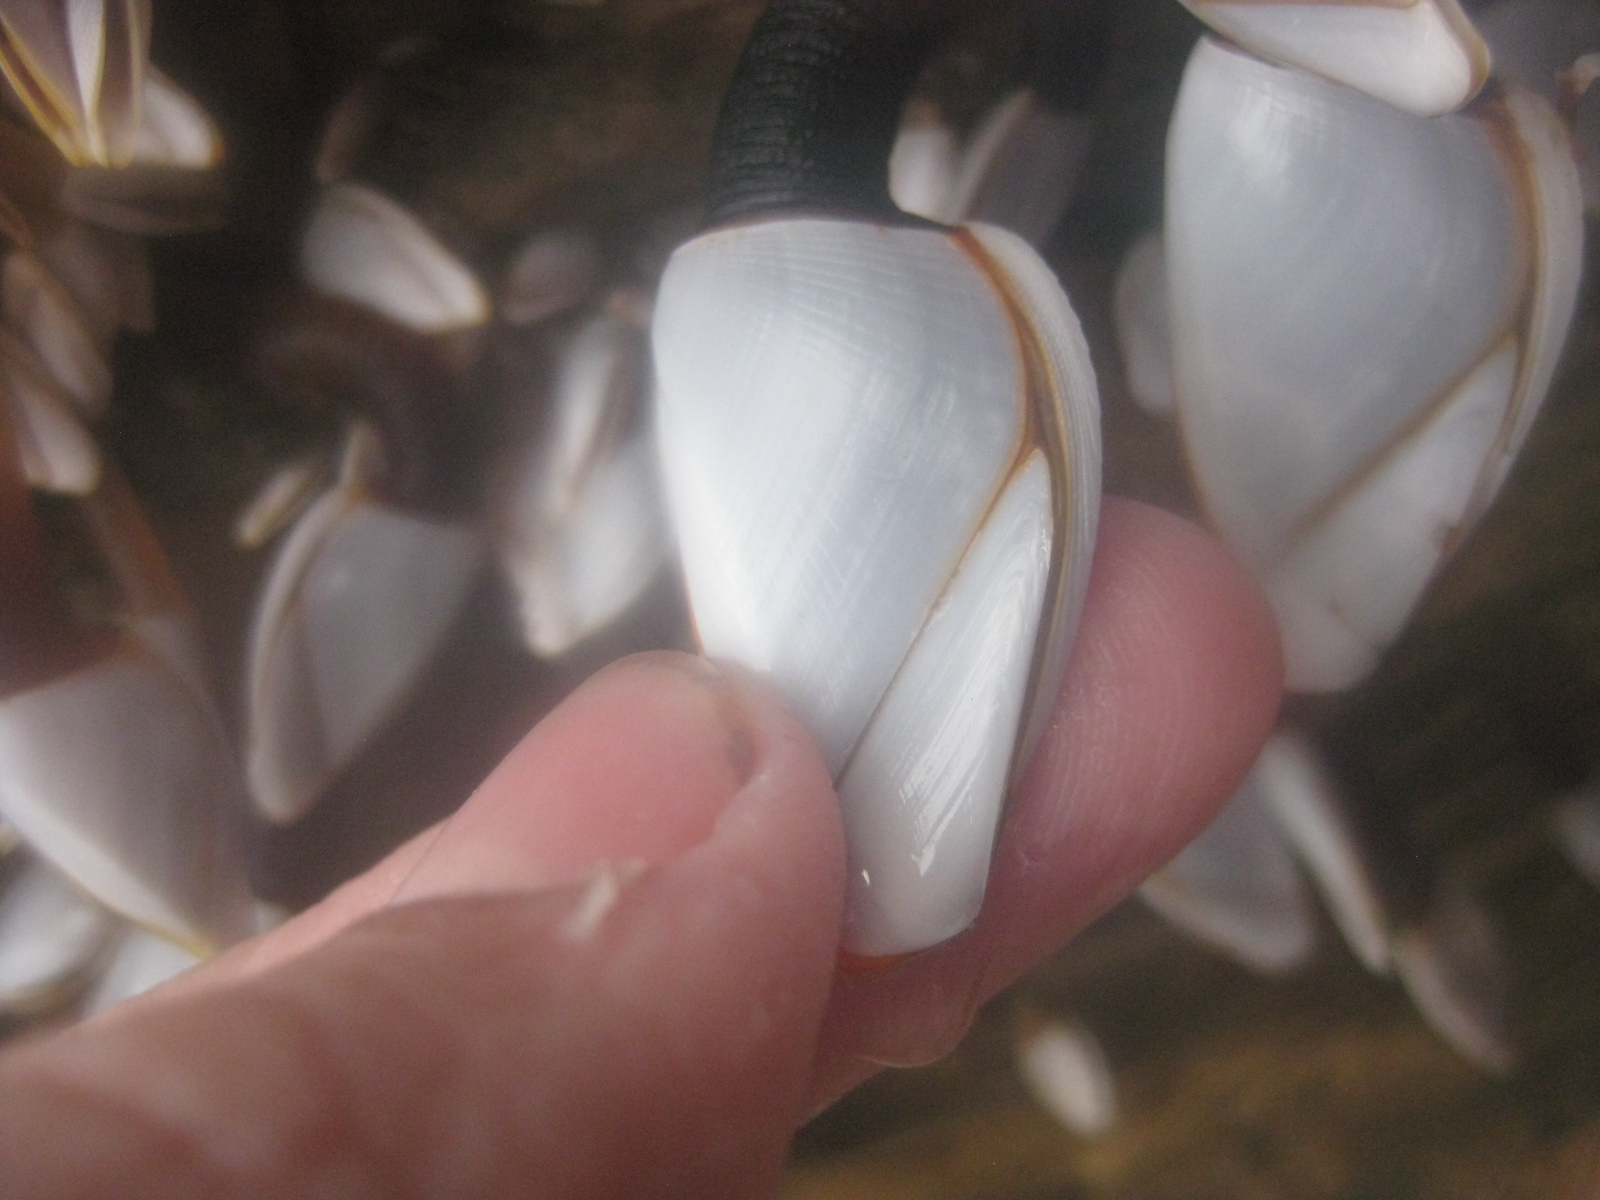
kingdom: Animalia
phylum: Arthropoda
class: Maxillopoda
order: Pedunculata
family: Lepadidae
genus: Lepas
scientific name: Lepas anatifera
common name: Common goose barnacle
